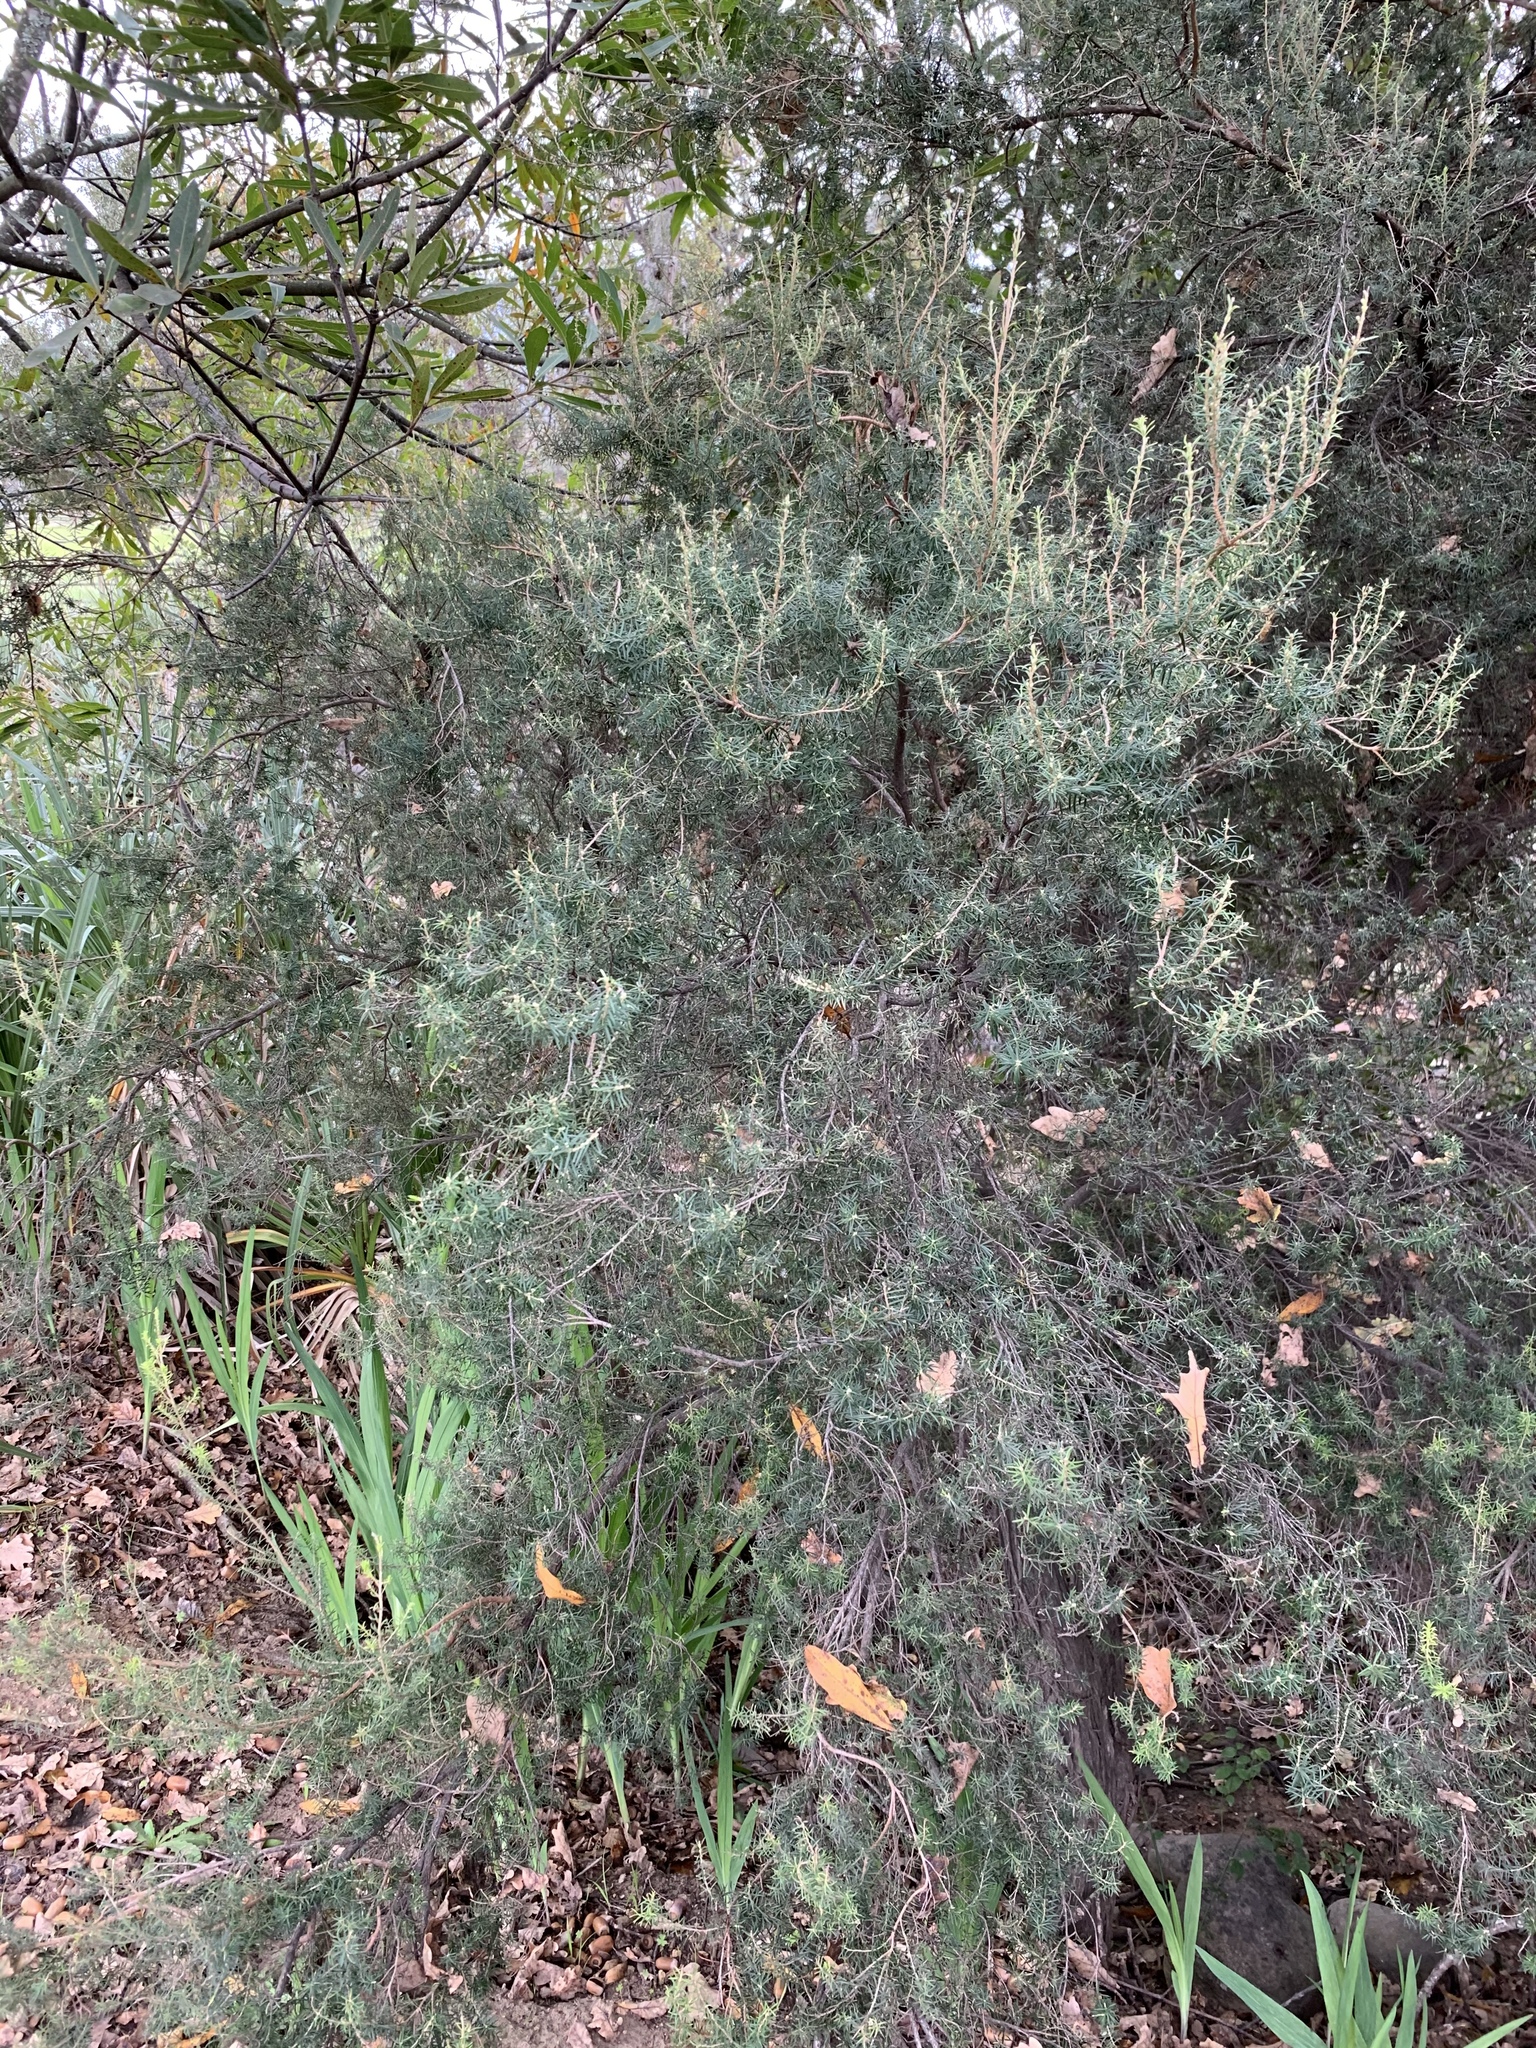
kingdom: Plantae
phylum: Tracheophyta
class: Magnoliopsida
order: Ericales
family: Ericaceae
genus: Erica
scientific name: Erica caffra
